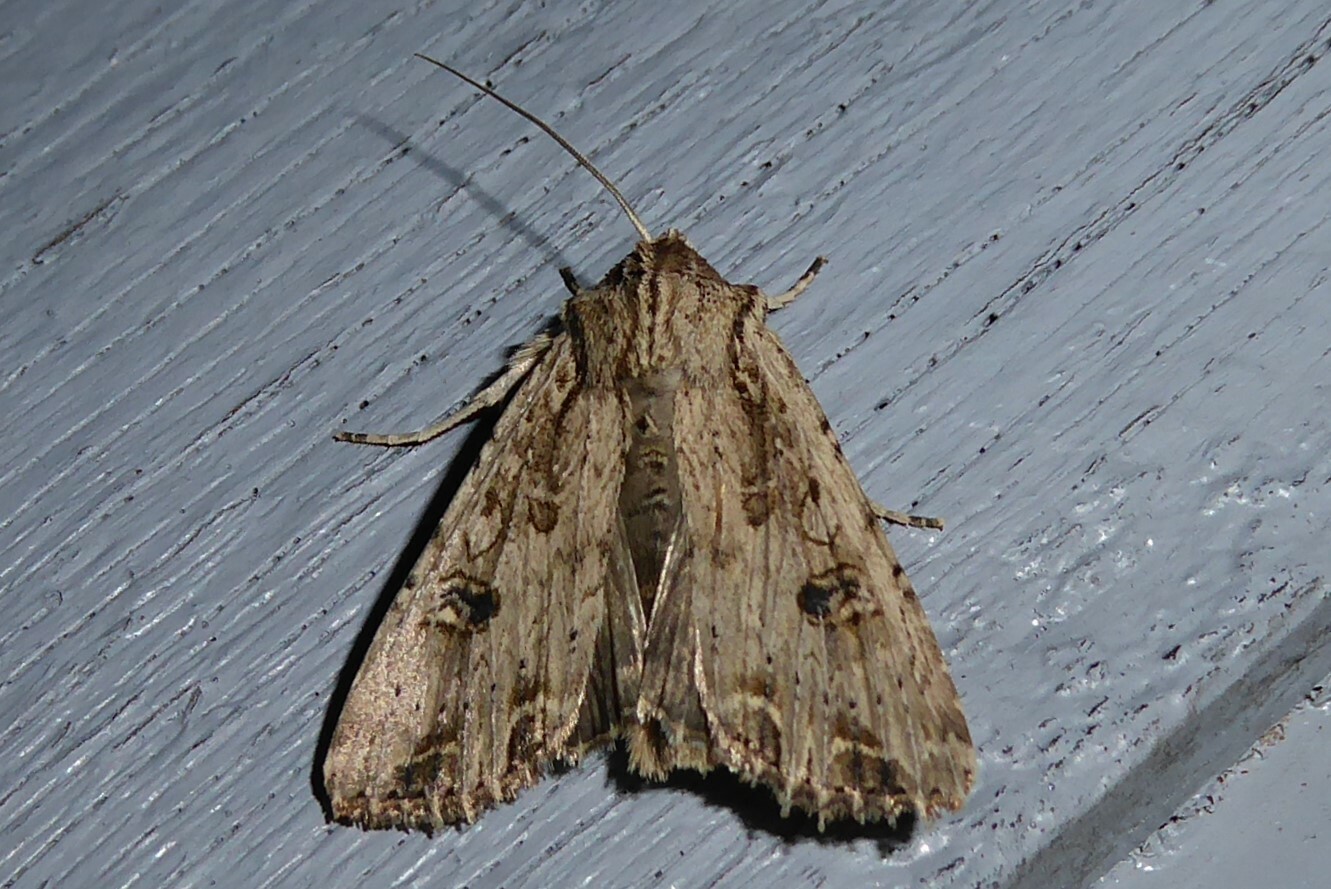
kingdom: Animalia
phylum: Arthropoda
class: Insecta
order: Lepidoptera
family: Noctuidae
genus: Ichneutica
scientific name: Ichneutica lignana
